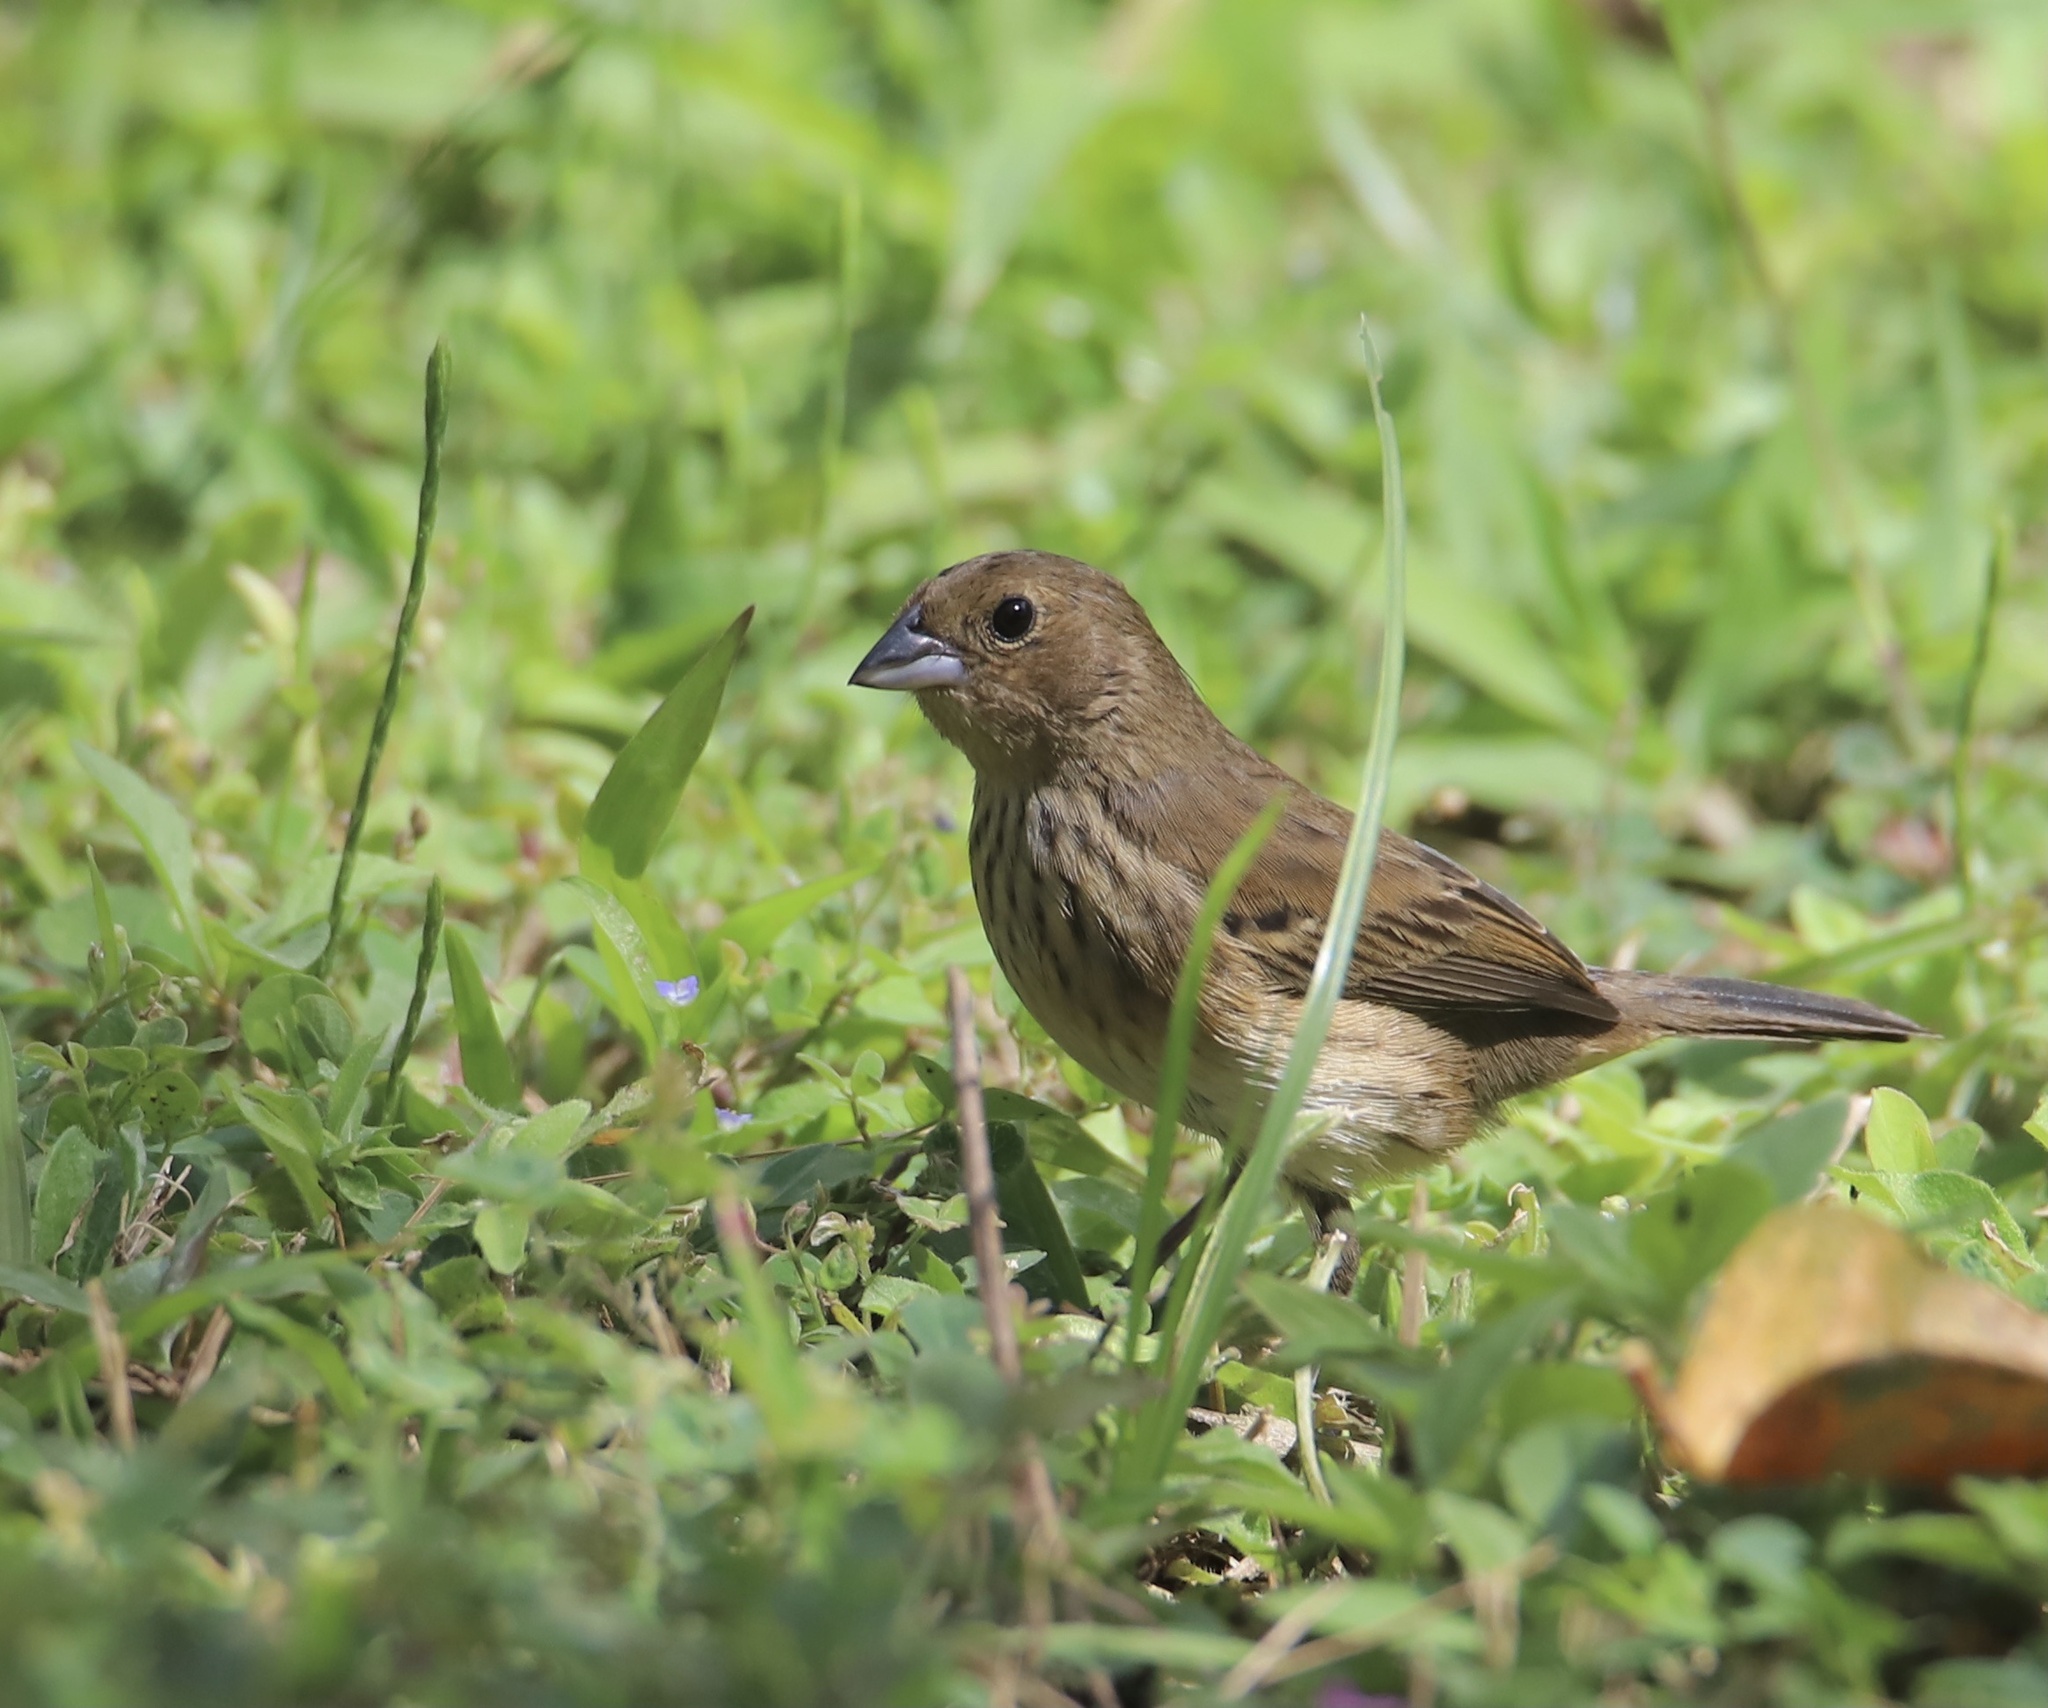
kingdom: Animalia
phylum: Chordata
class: Aves
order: Passeriformes
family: Thraupidae
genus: Volatinia
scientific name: Volatinia jacarina
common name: Blue-black grassquit
